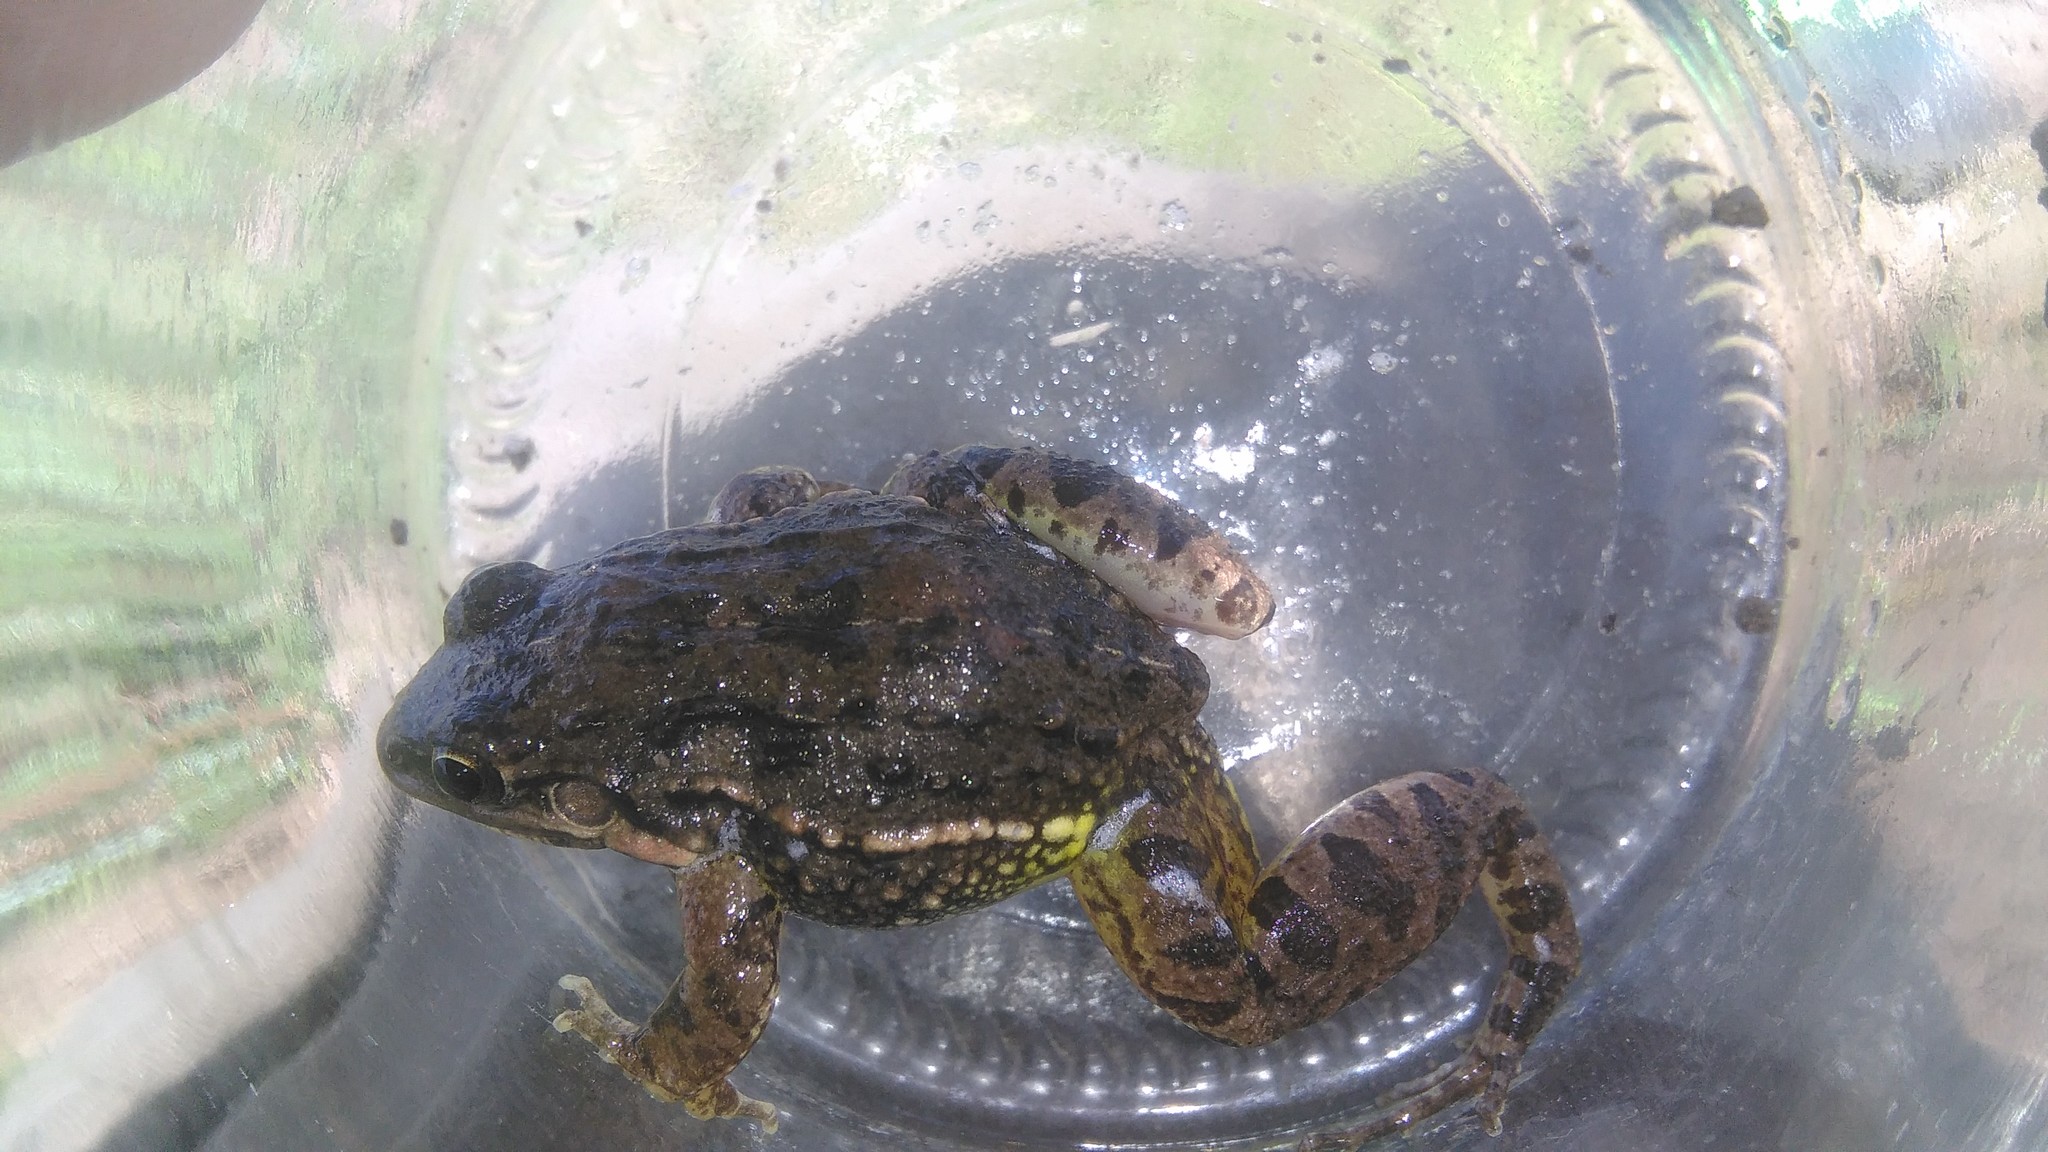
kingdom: Animalia
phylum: Chordata
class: Amphibia
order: Anura
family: Leptodactylidae
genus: Leptodactylus
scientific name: Leptodactylus latinasus
